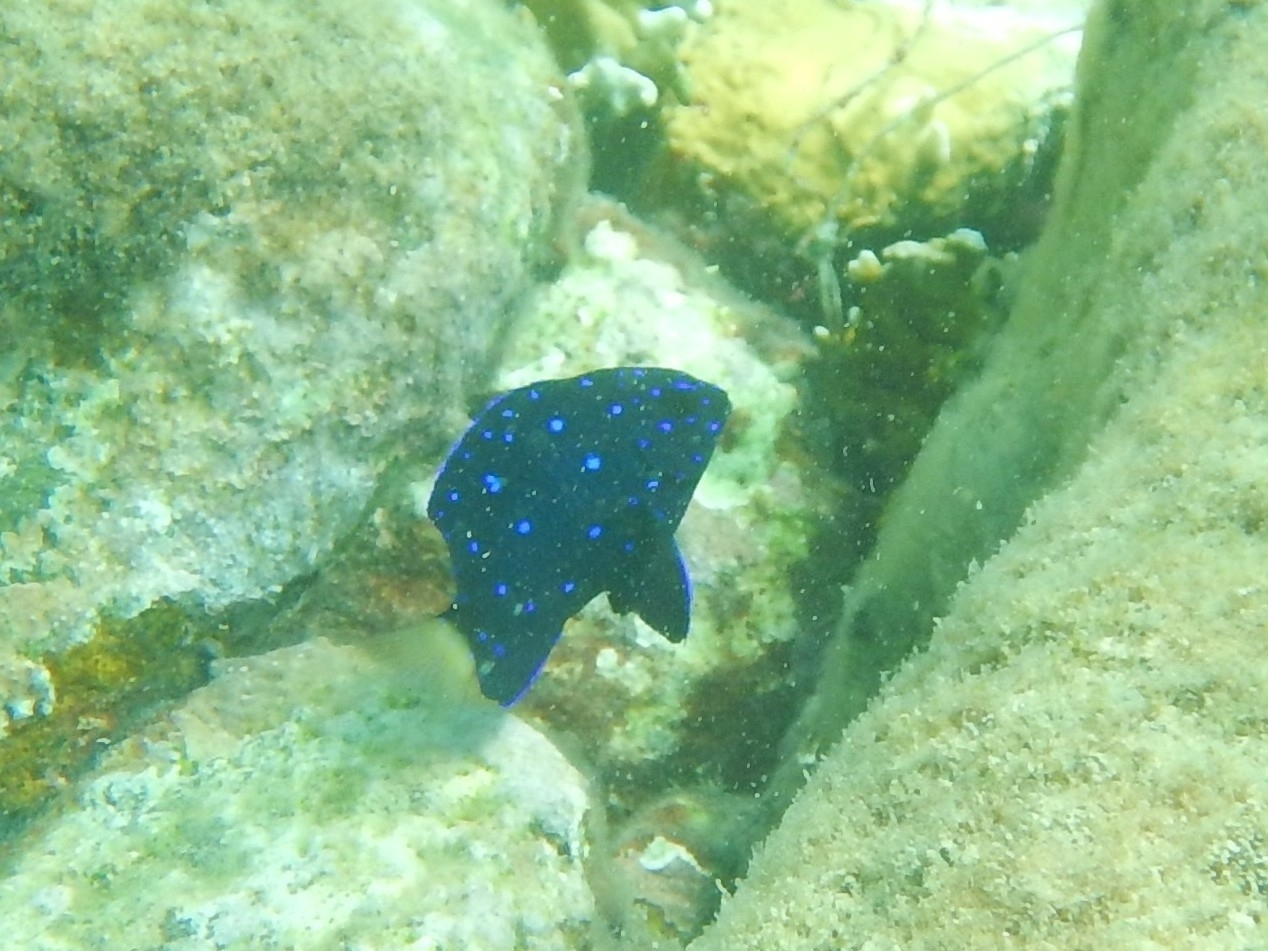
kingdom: Animalia
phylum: Chordata
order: Perciformes
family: Pomacentridae
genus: Microspathodon
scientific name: Microspathodon chrysurus
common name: Yellowtail damselfish
